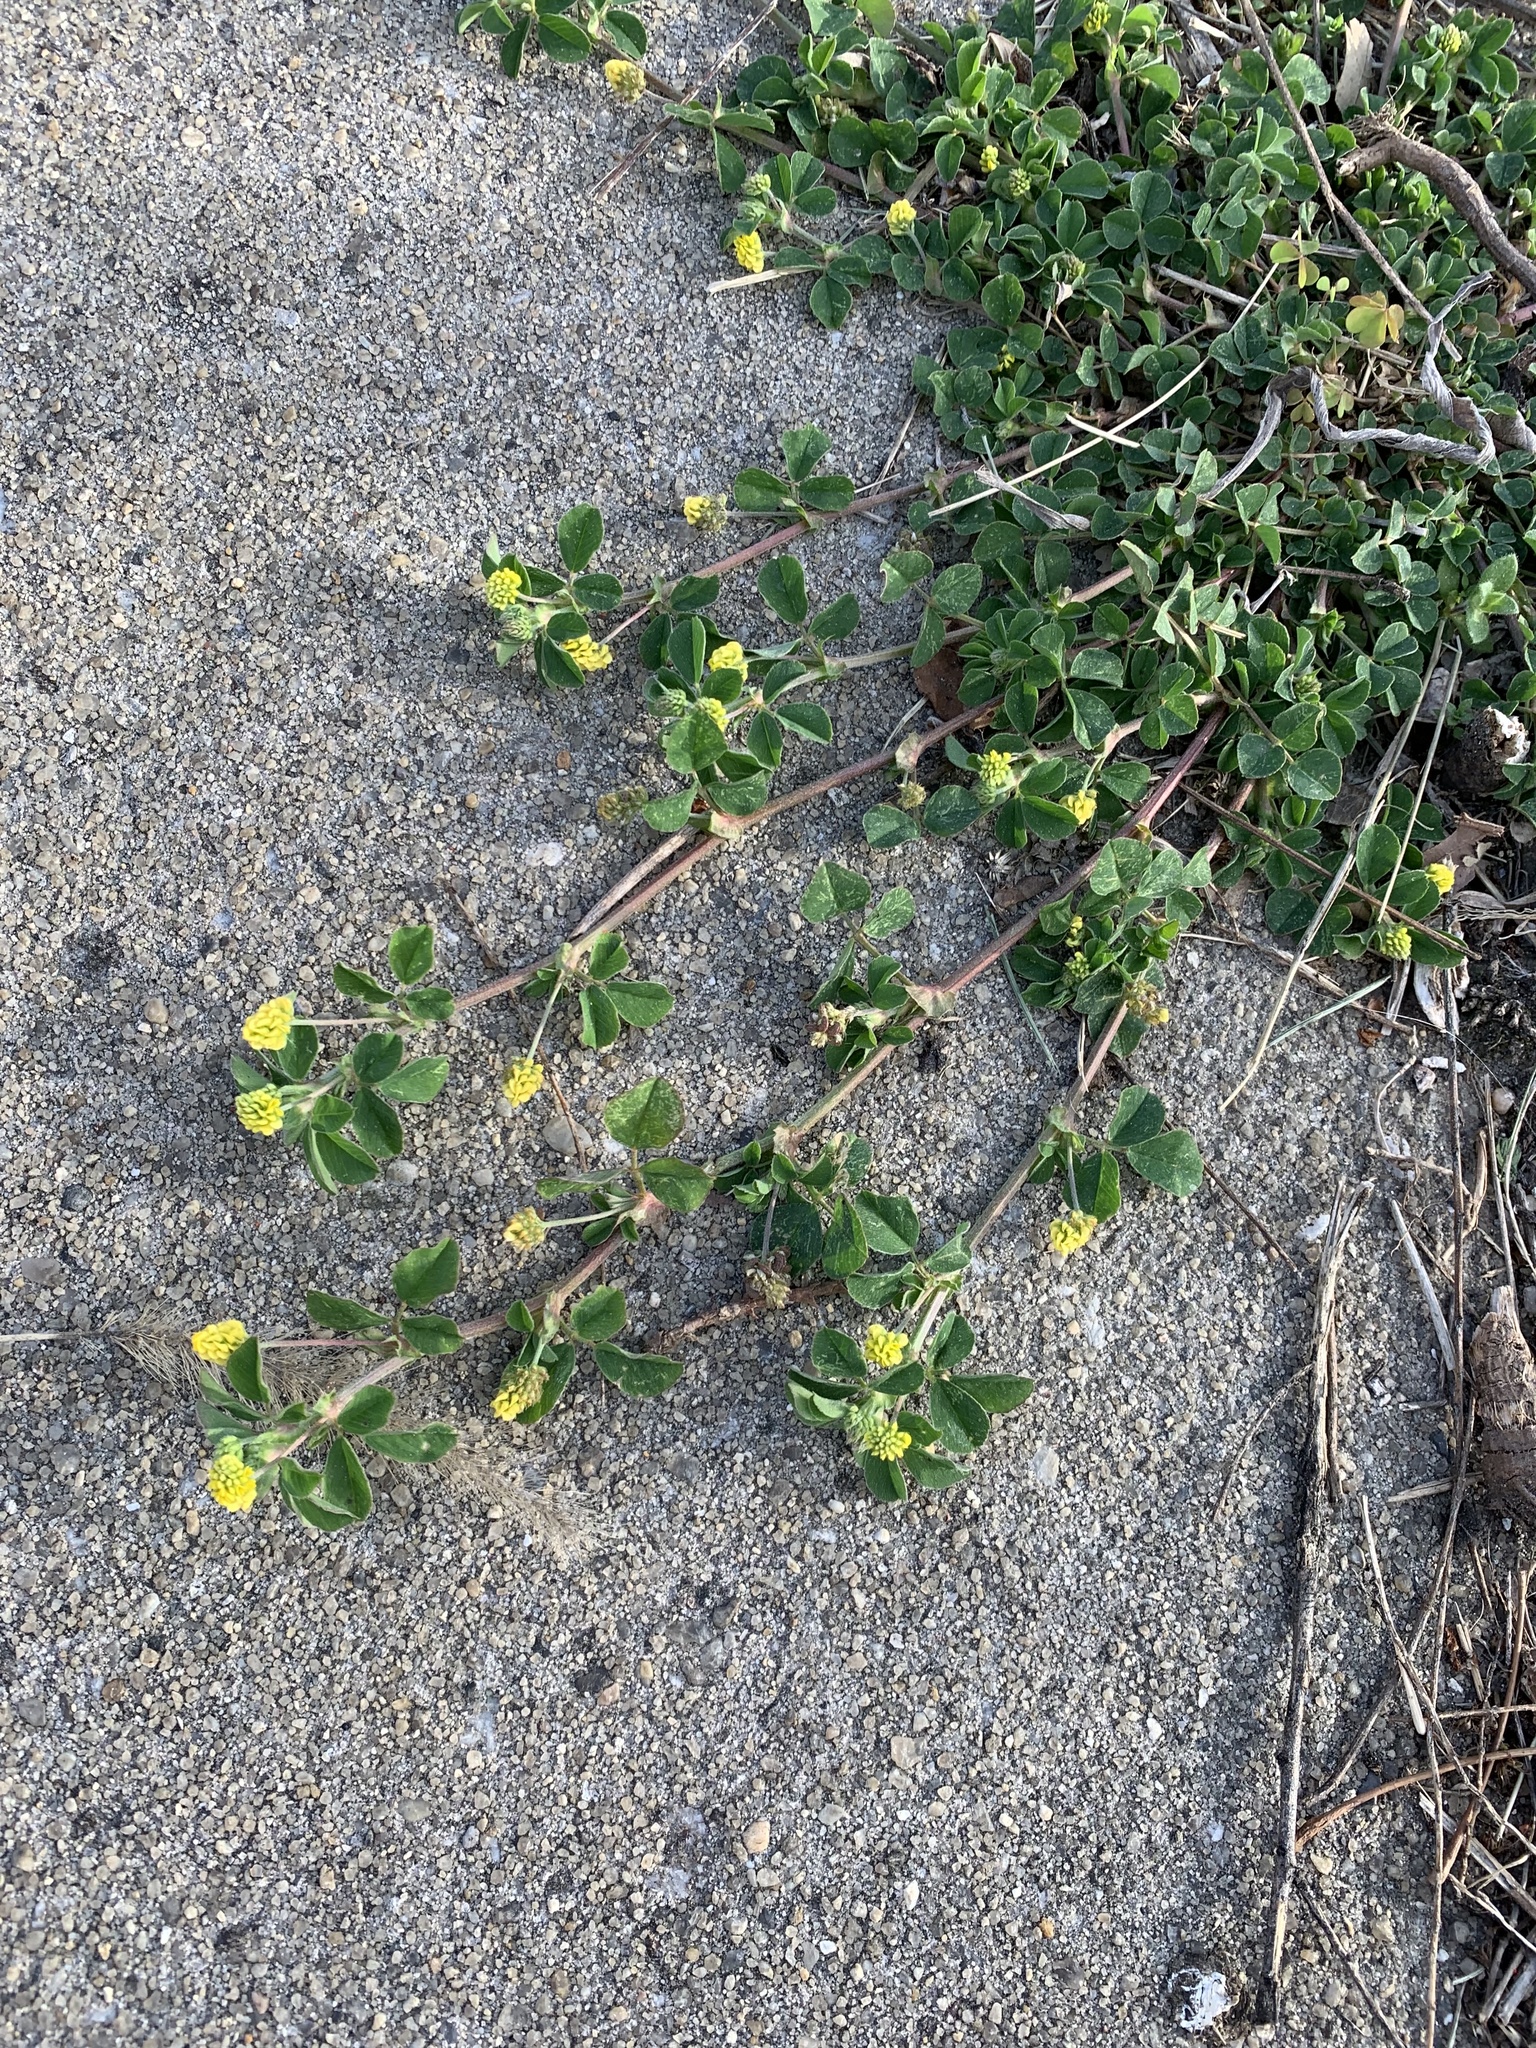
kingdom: Plantae
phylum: Tracheophyta
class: Magnoliopsida
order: Fabales
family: Fabaceae
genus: Medicago
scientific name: Medicago lupulina
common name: Black medick
